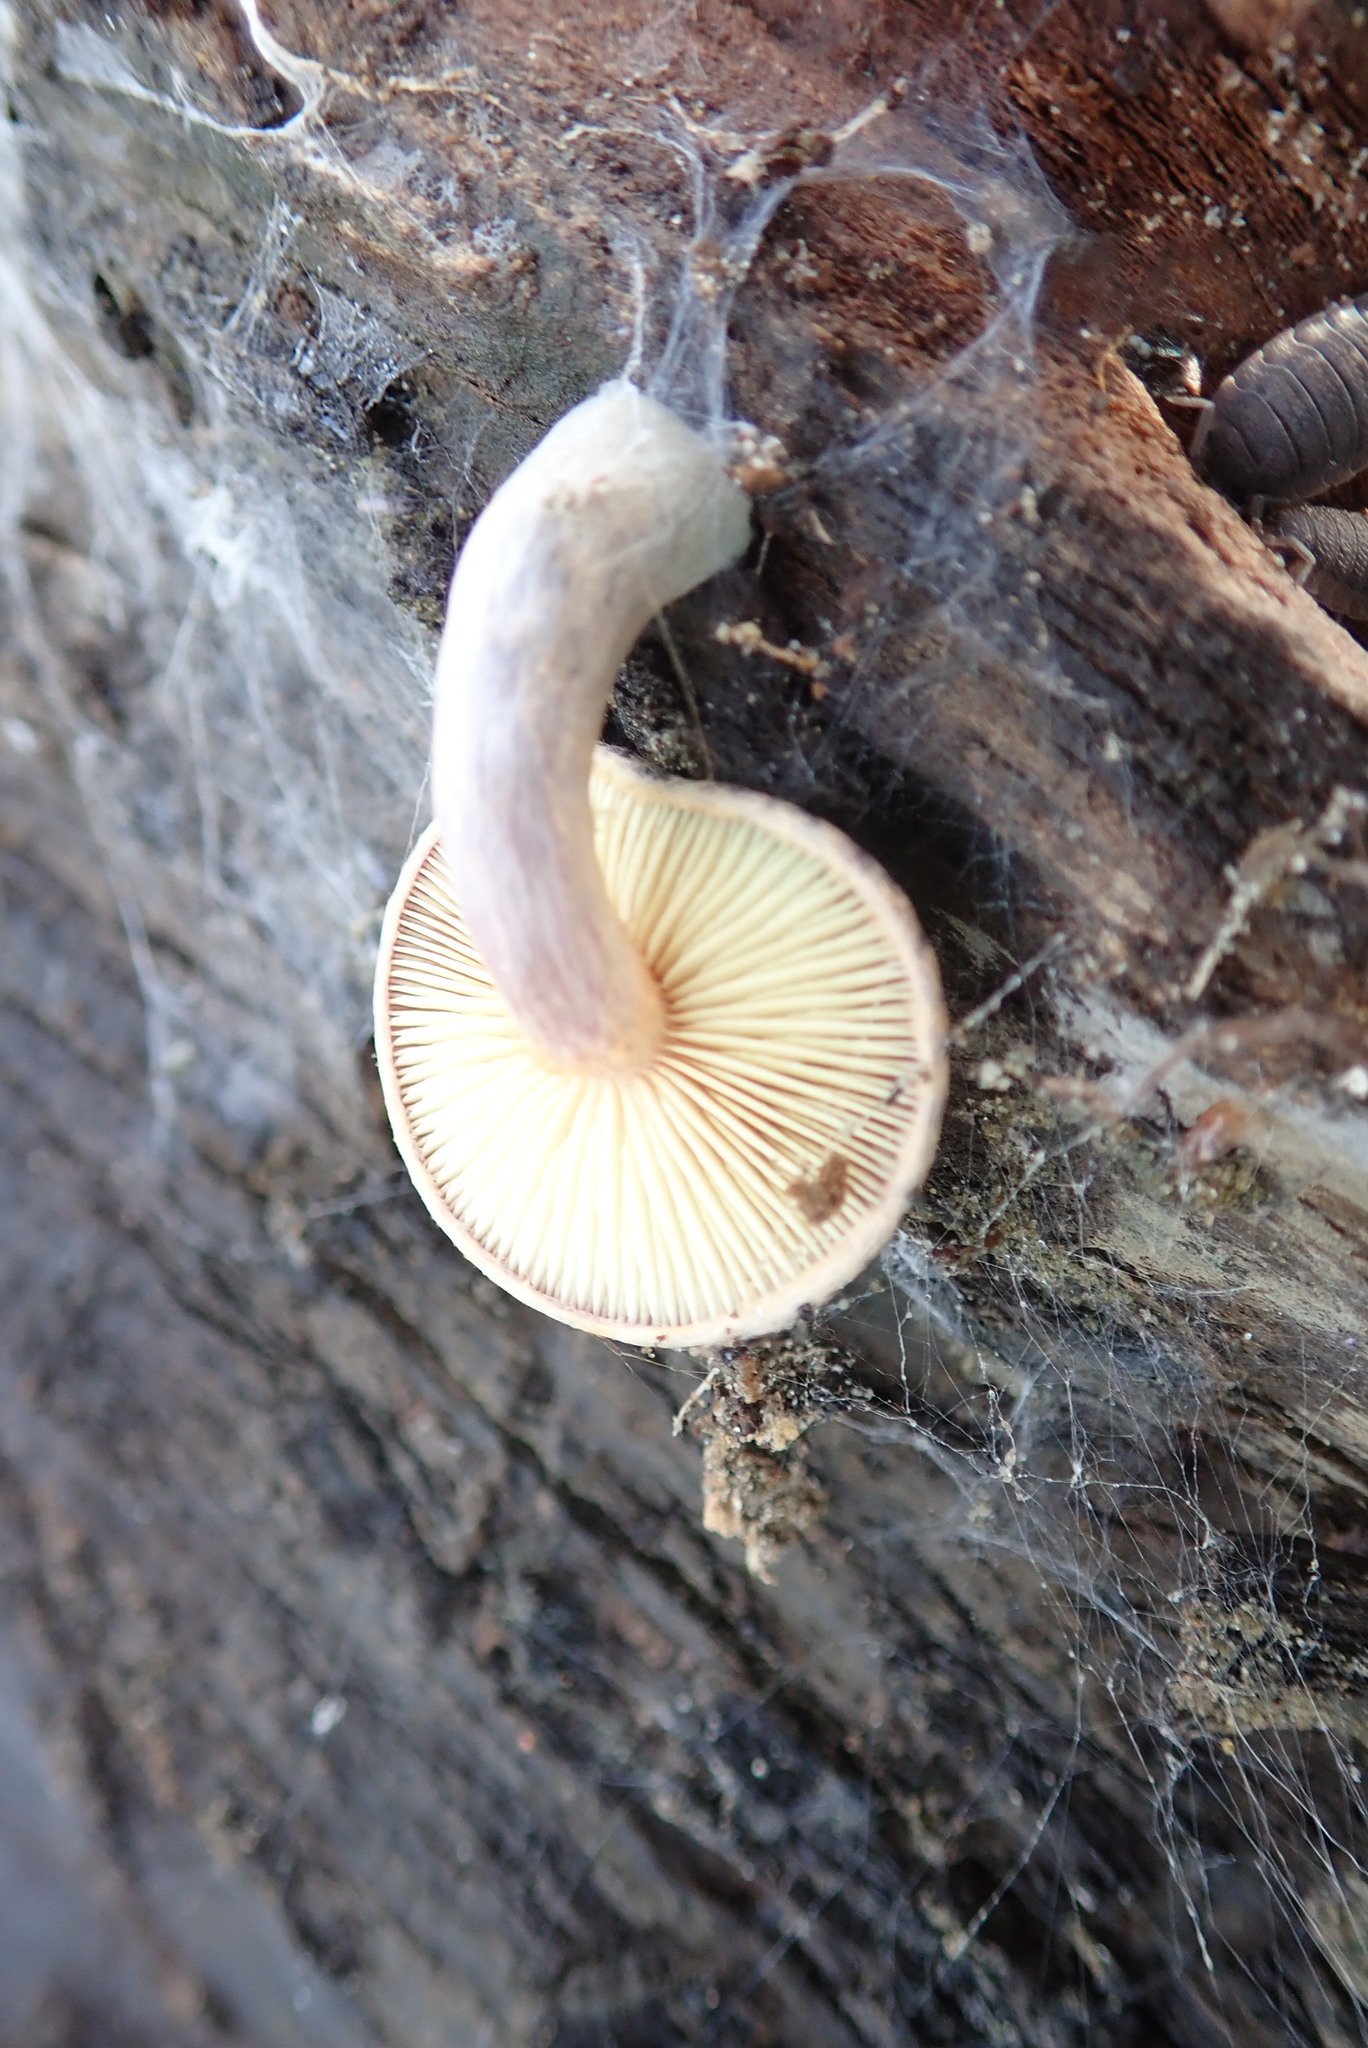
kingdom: Fungi
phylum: Basidiomycota
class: Agaricomycetes
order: Agaricales
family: Hymenogastraceae
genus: Gymnopilus
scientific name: Gymnopilus purpuratus
